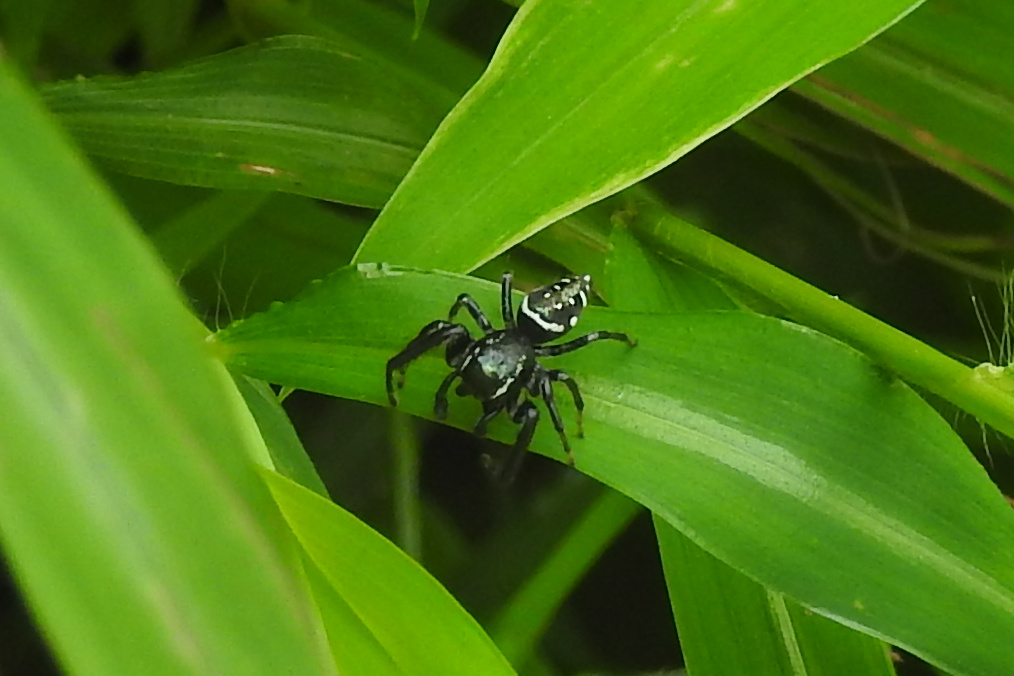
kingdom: Animalia
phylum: Arthropoda
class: Arachnida
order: Araneae
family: Salticidae
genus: Paraphidippus
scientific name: Paraphidippus aurantius
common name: Jumping spiders
